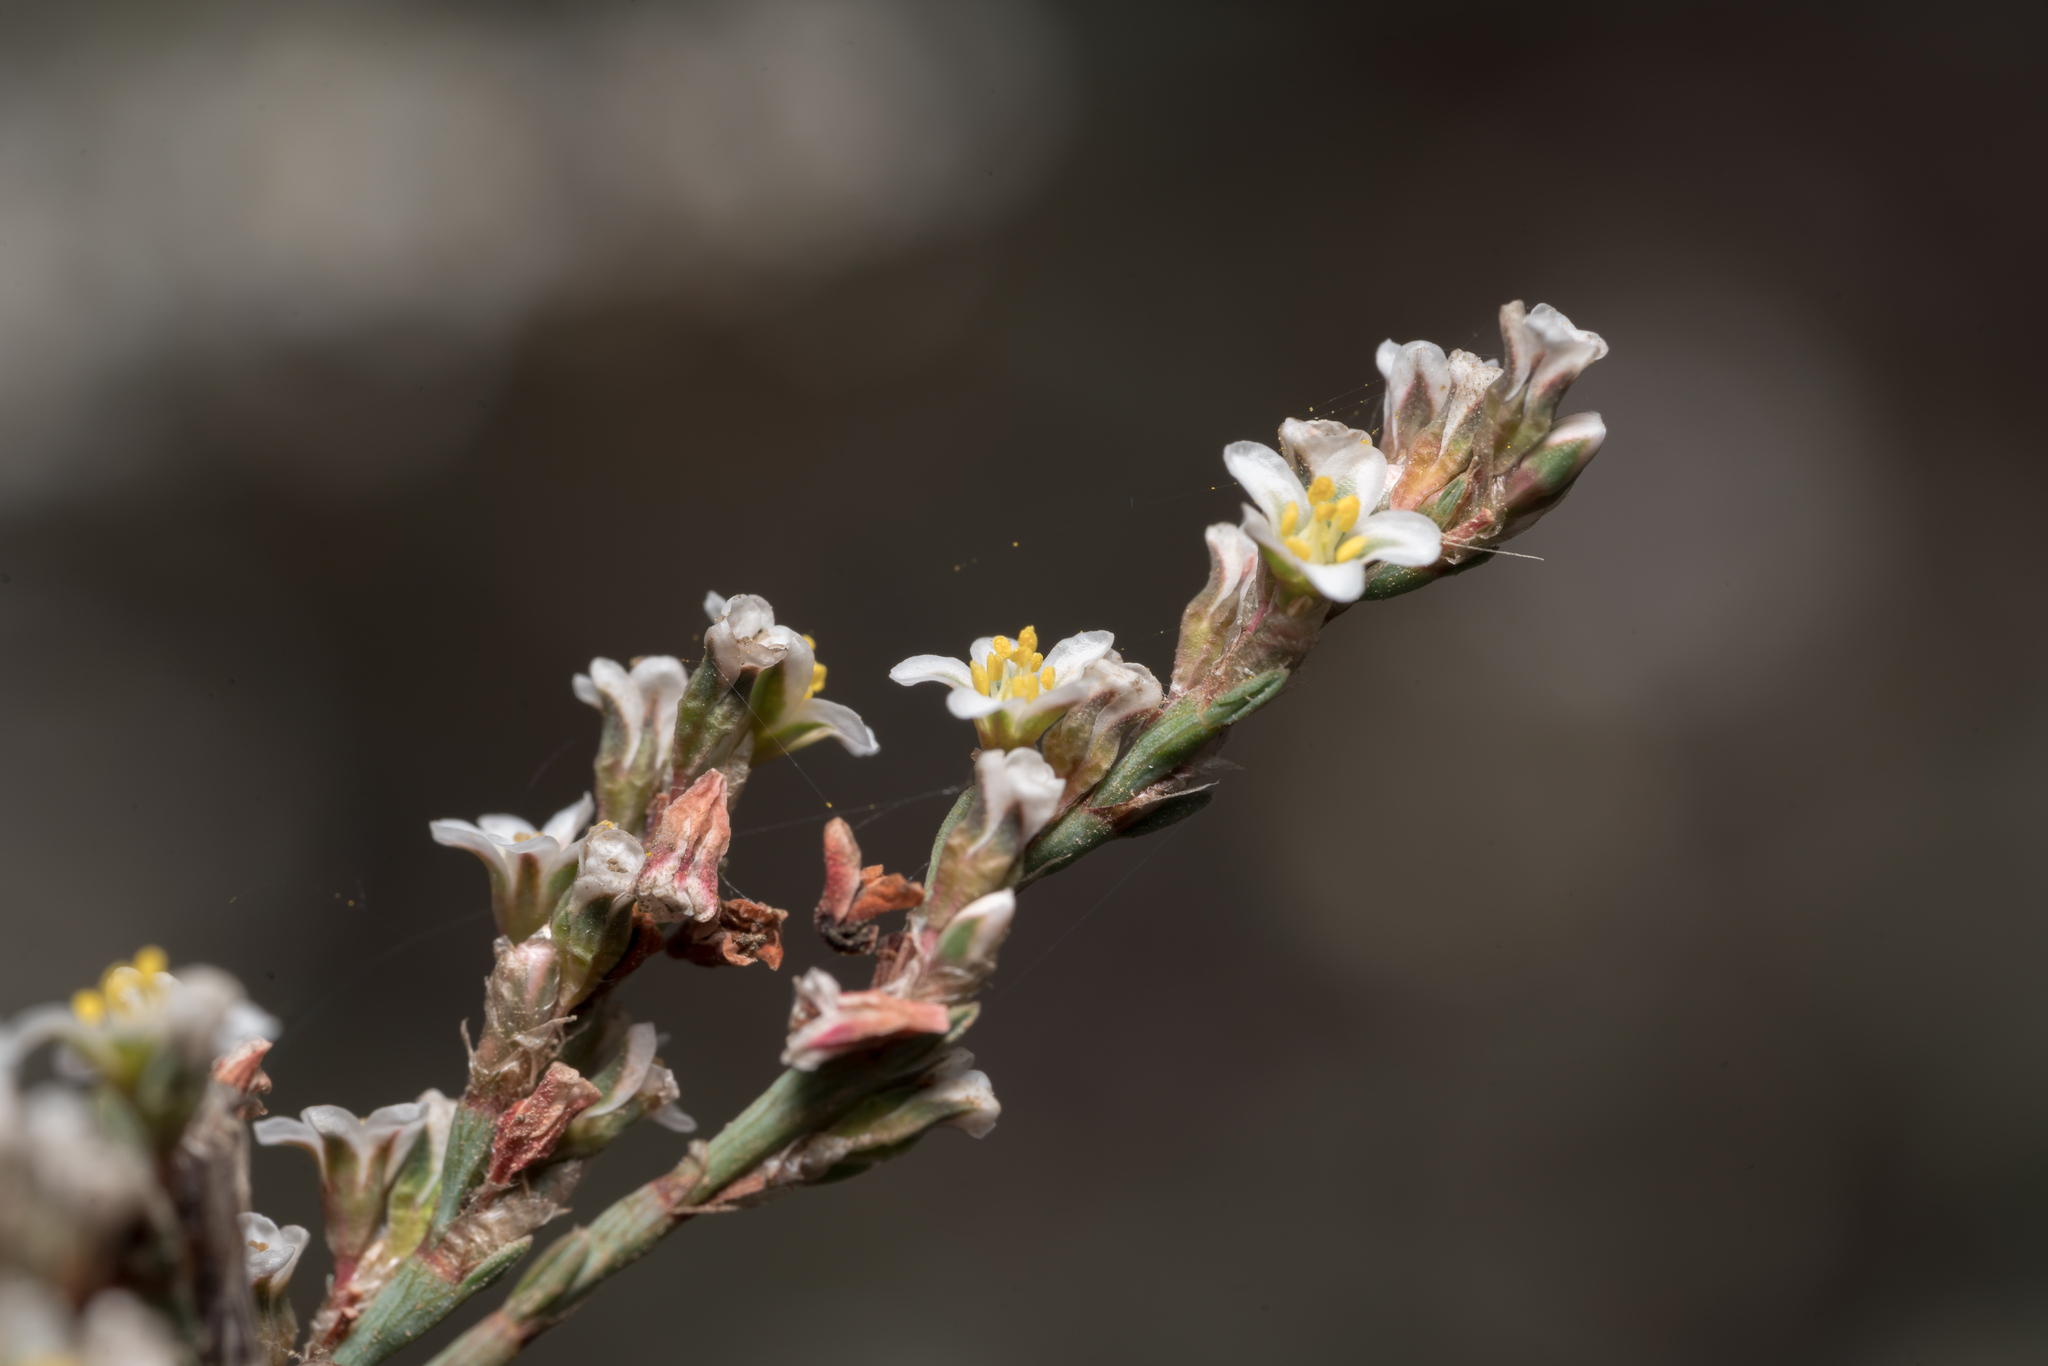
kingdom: Plantae
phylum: Tracheophyta
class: Magnoliopsida
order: Caryophyllales
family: Polygonaceae
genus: Polygonum
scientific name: Polygonum equisetiforme
